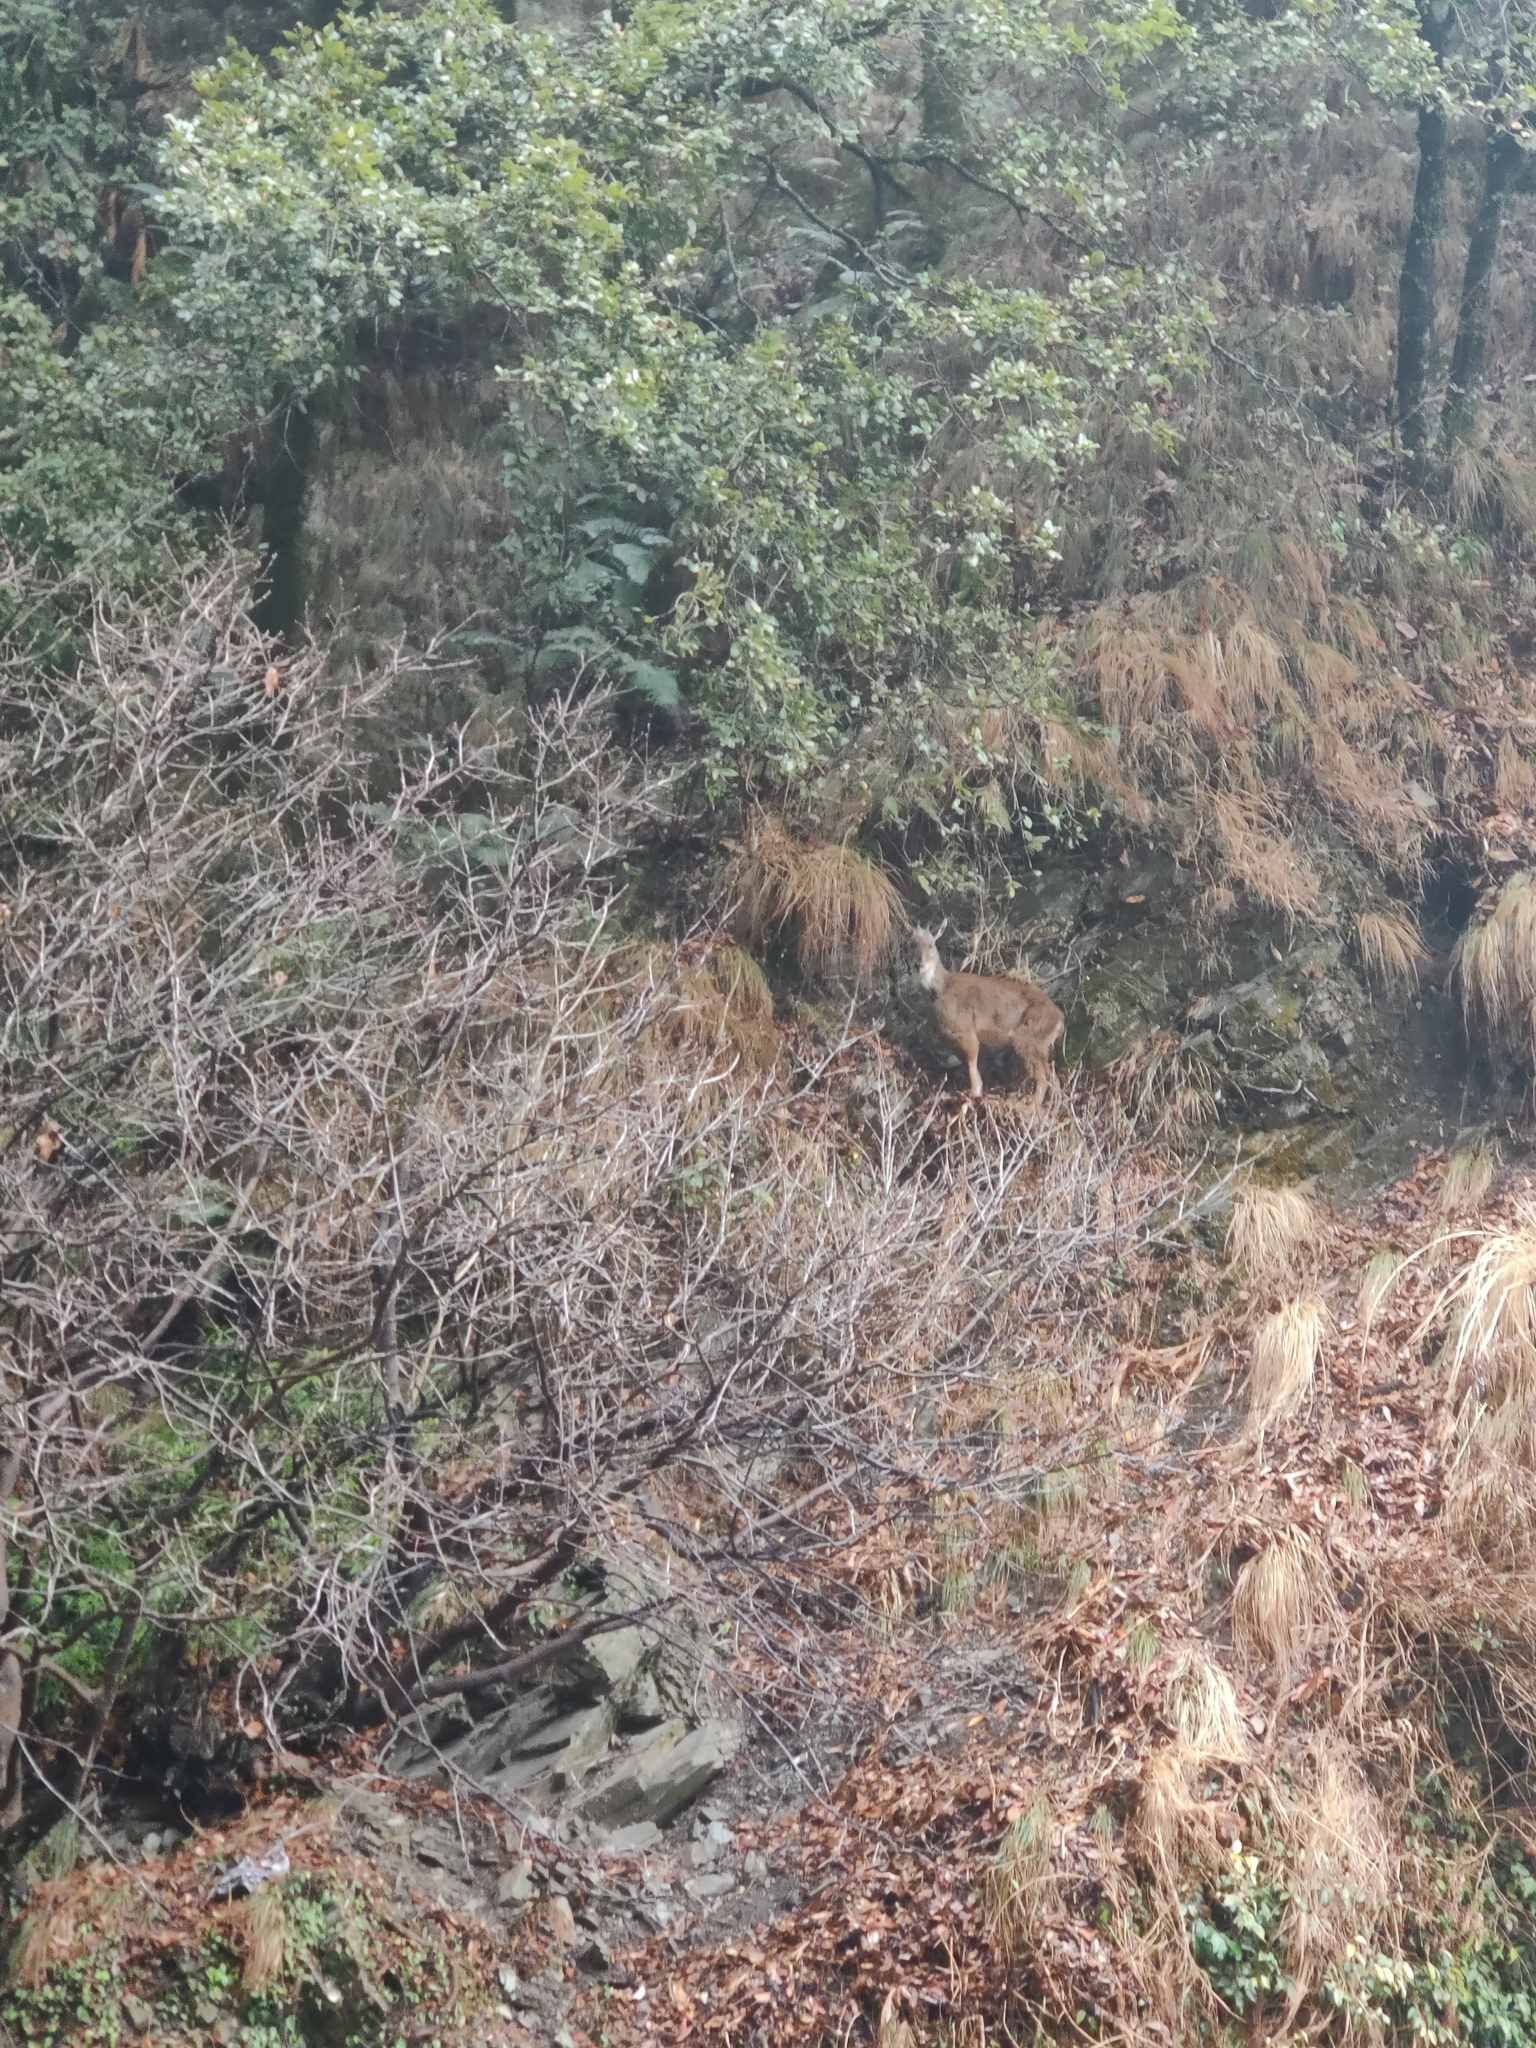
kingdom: Animalia
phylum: Chordata
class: Mammalia
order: Artiodactyla
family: Bovidae
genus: Naemorhedus
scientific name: Naemorhedus goral
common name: Goral
